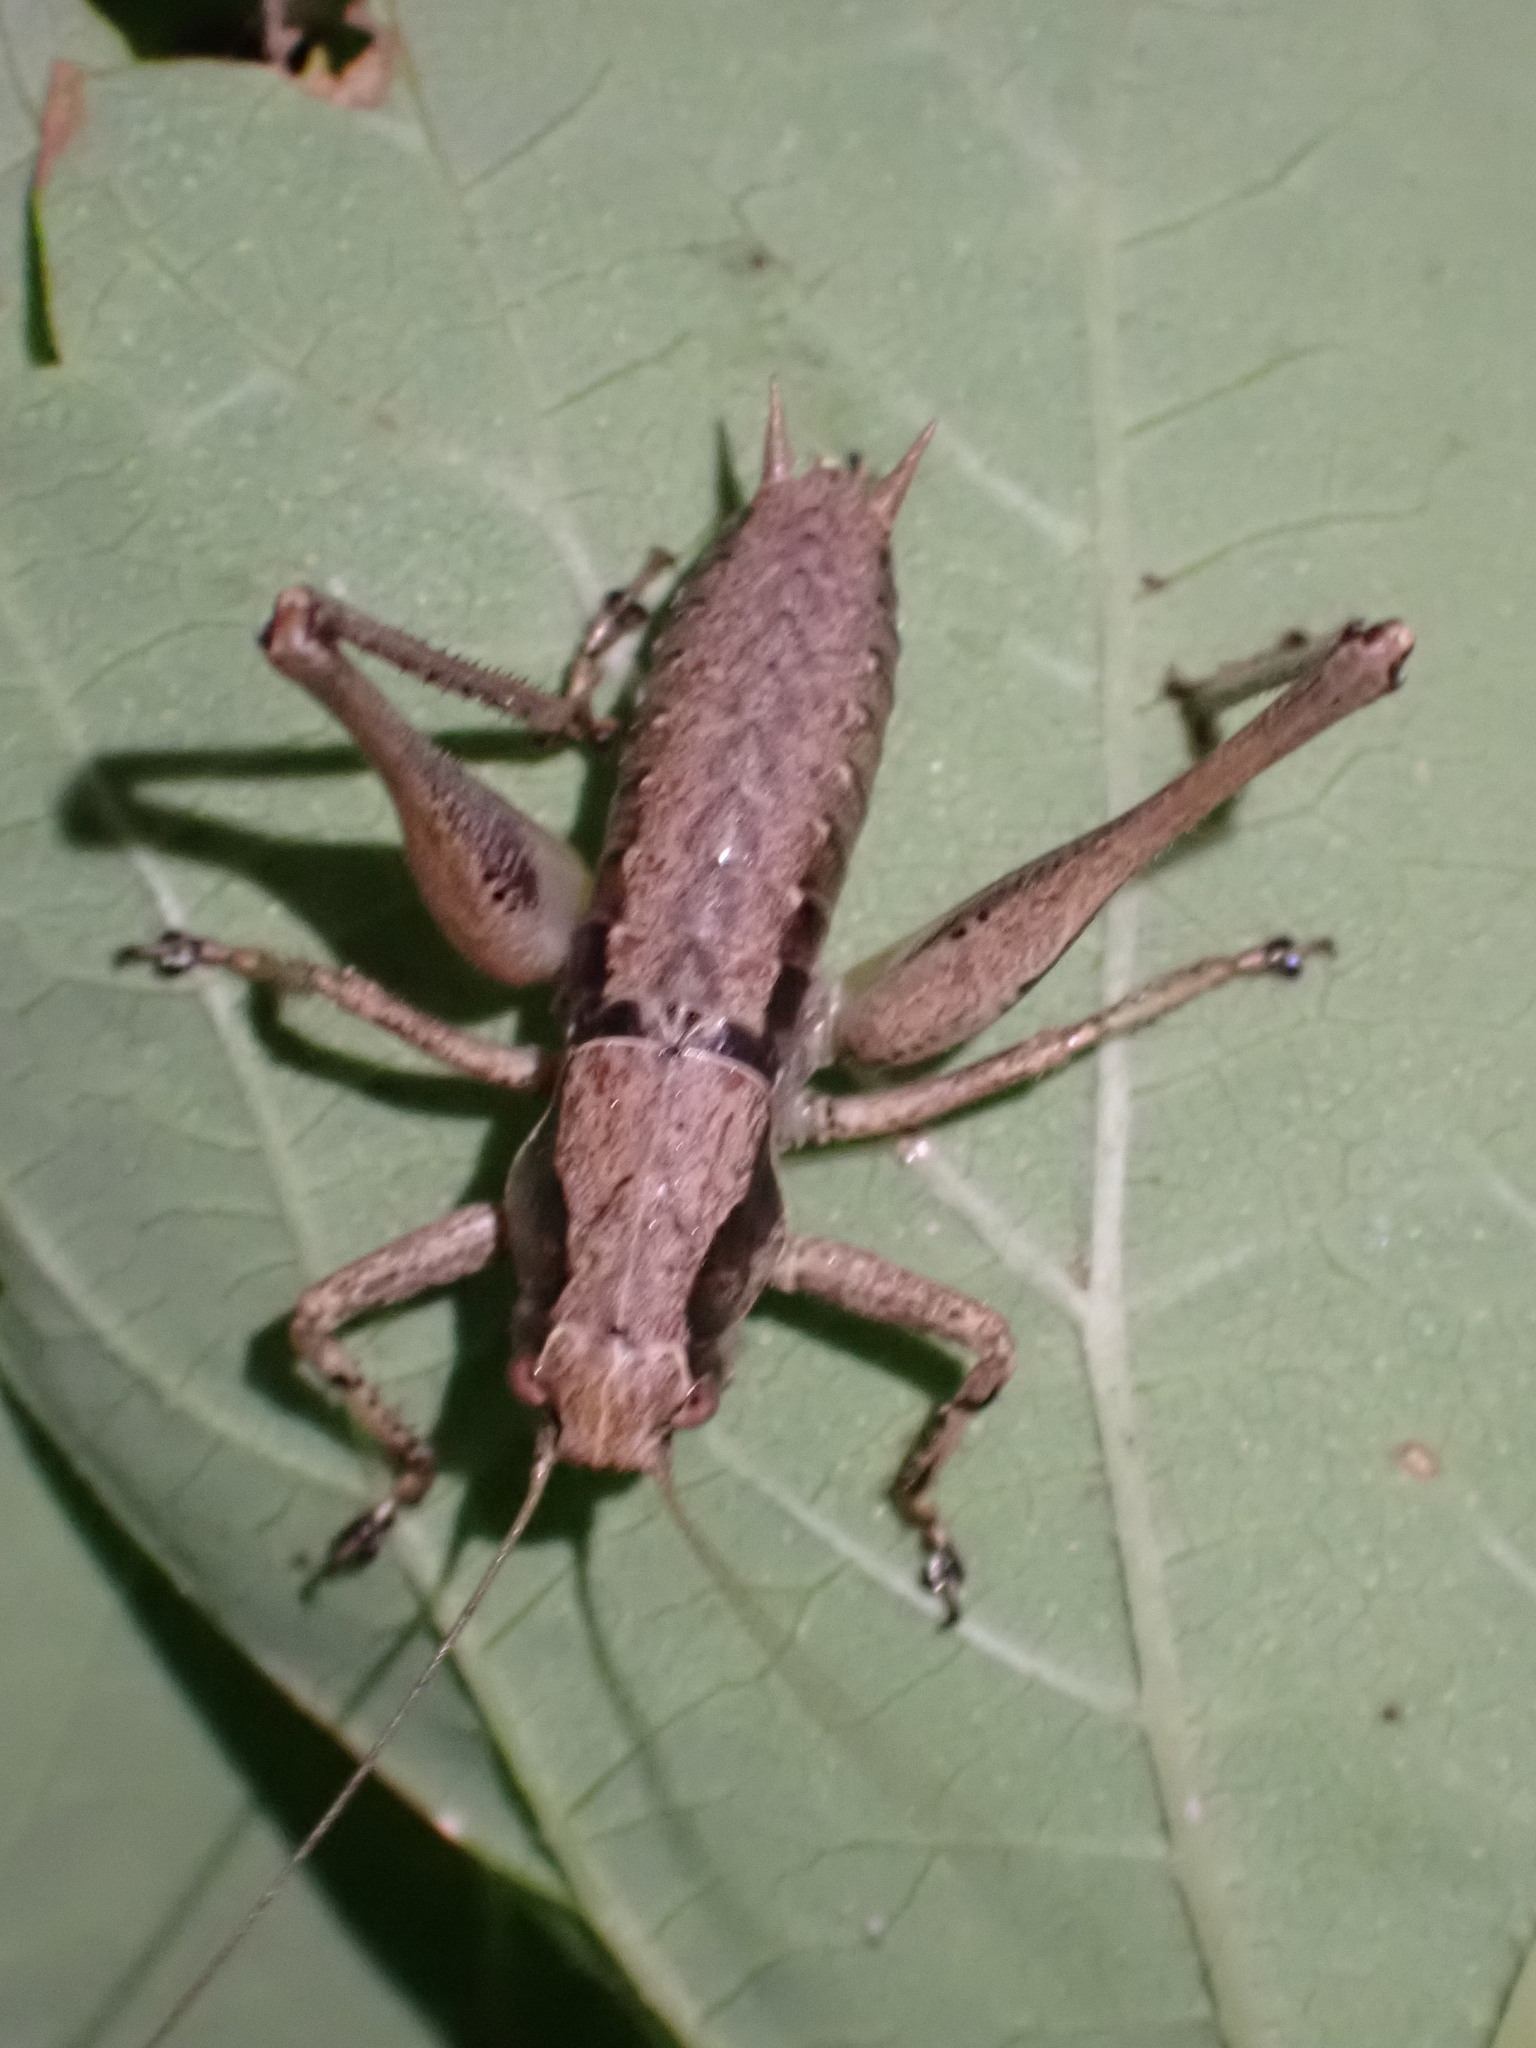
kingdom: Animalia
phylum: Arthropoda
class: Insecta
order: Orthoptera
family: Tettigoniidae
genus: Pholidoptera
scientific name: Pholidoptera griseoaptera
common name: Dark bush-cricket
